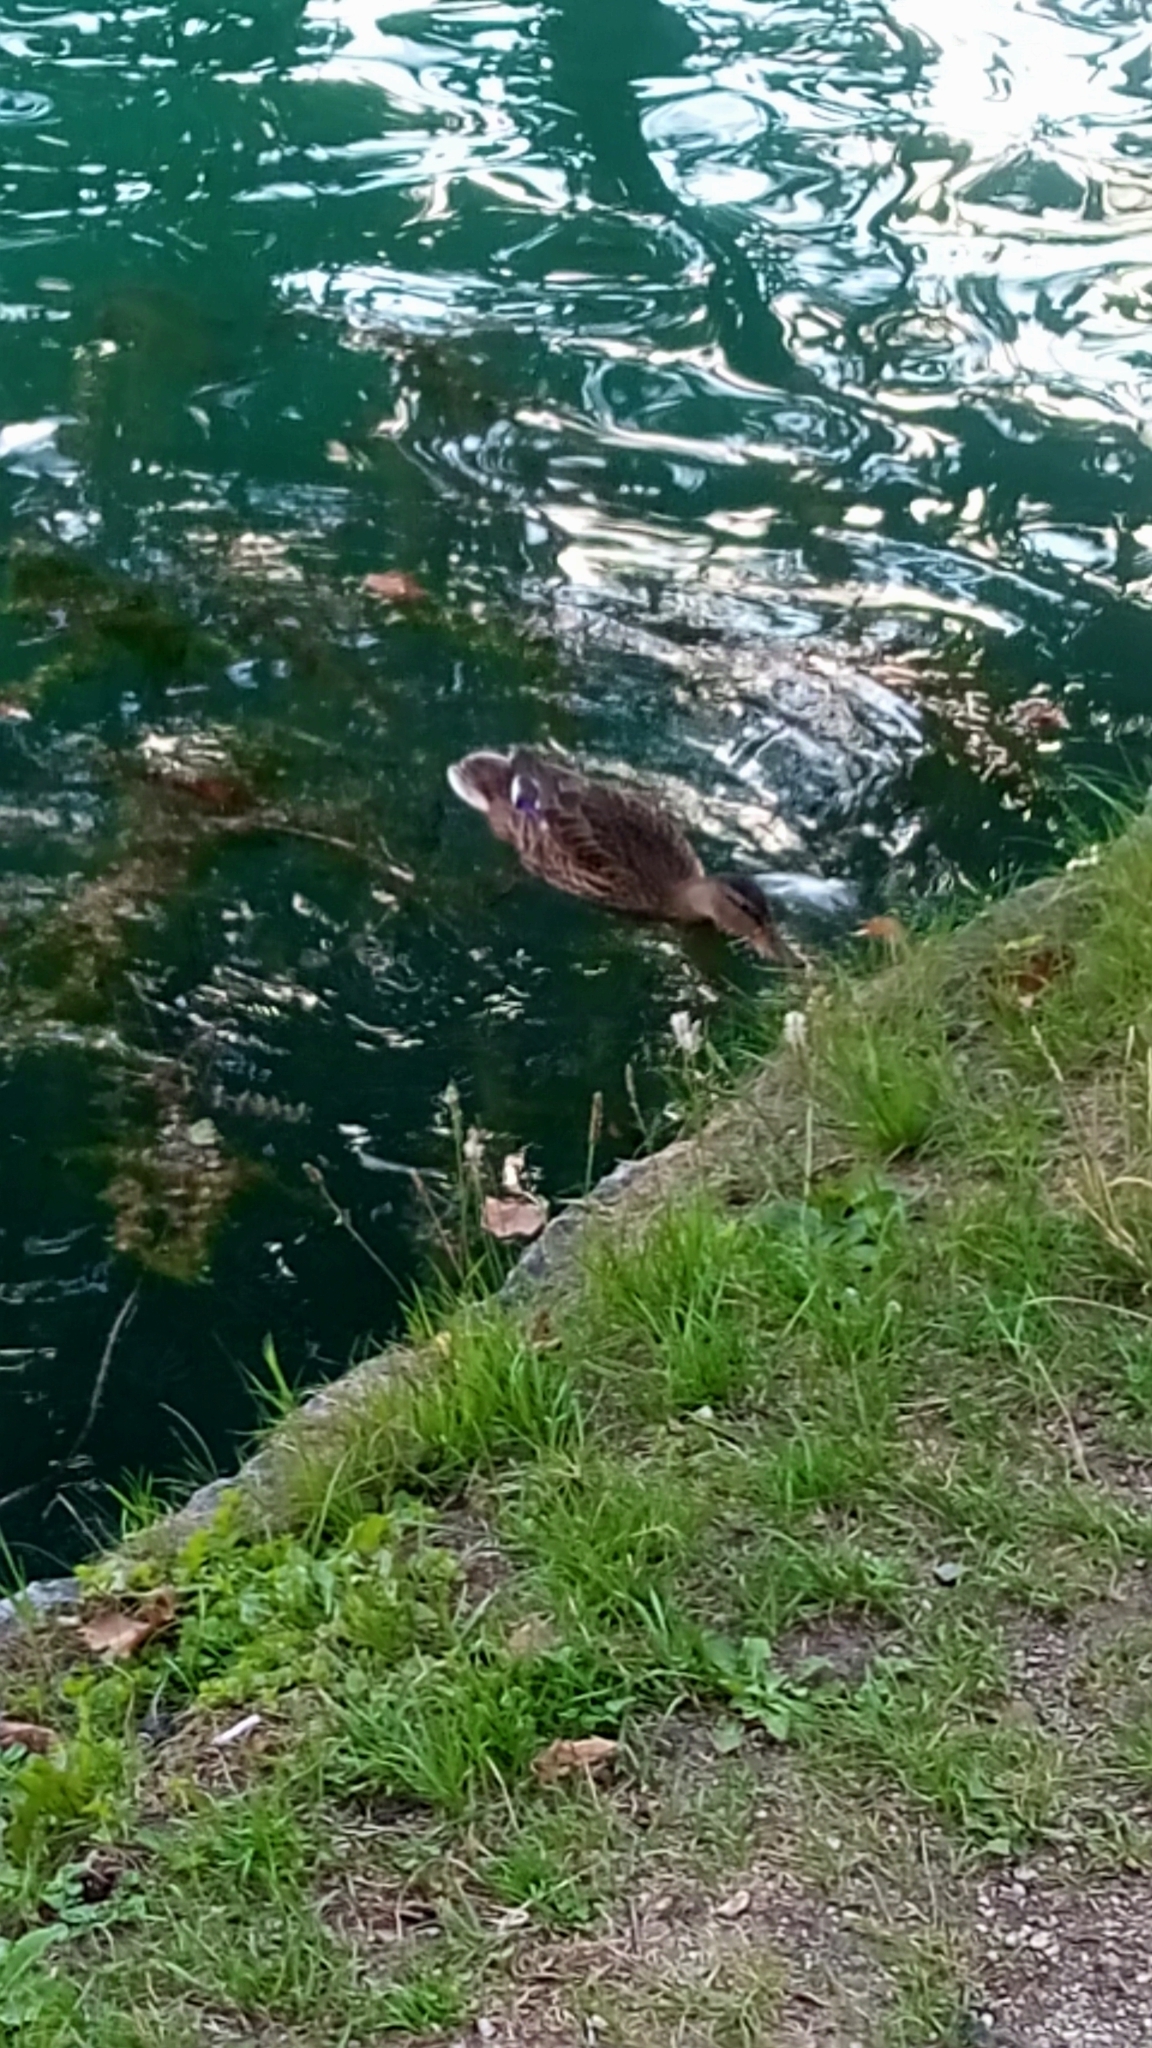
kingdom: Animalia
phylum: Chordata
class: Aves
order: Anseriformes
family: Anatidae
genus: Anas
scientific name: Anas platyrhynchos
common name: Mallard
